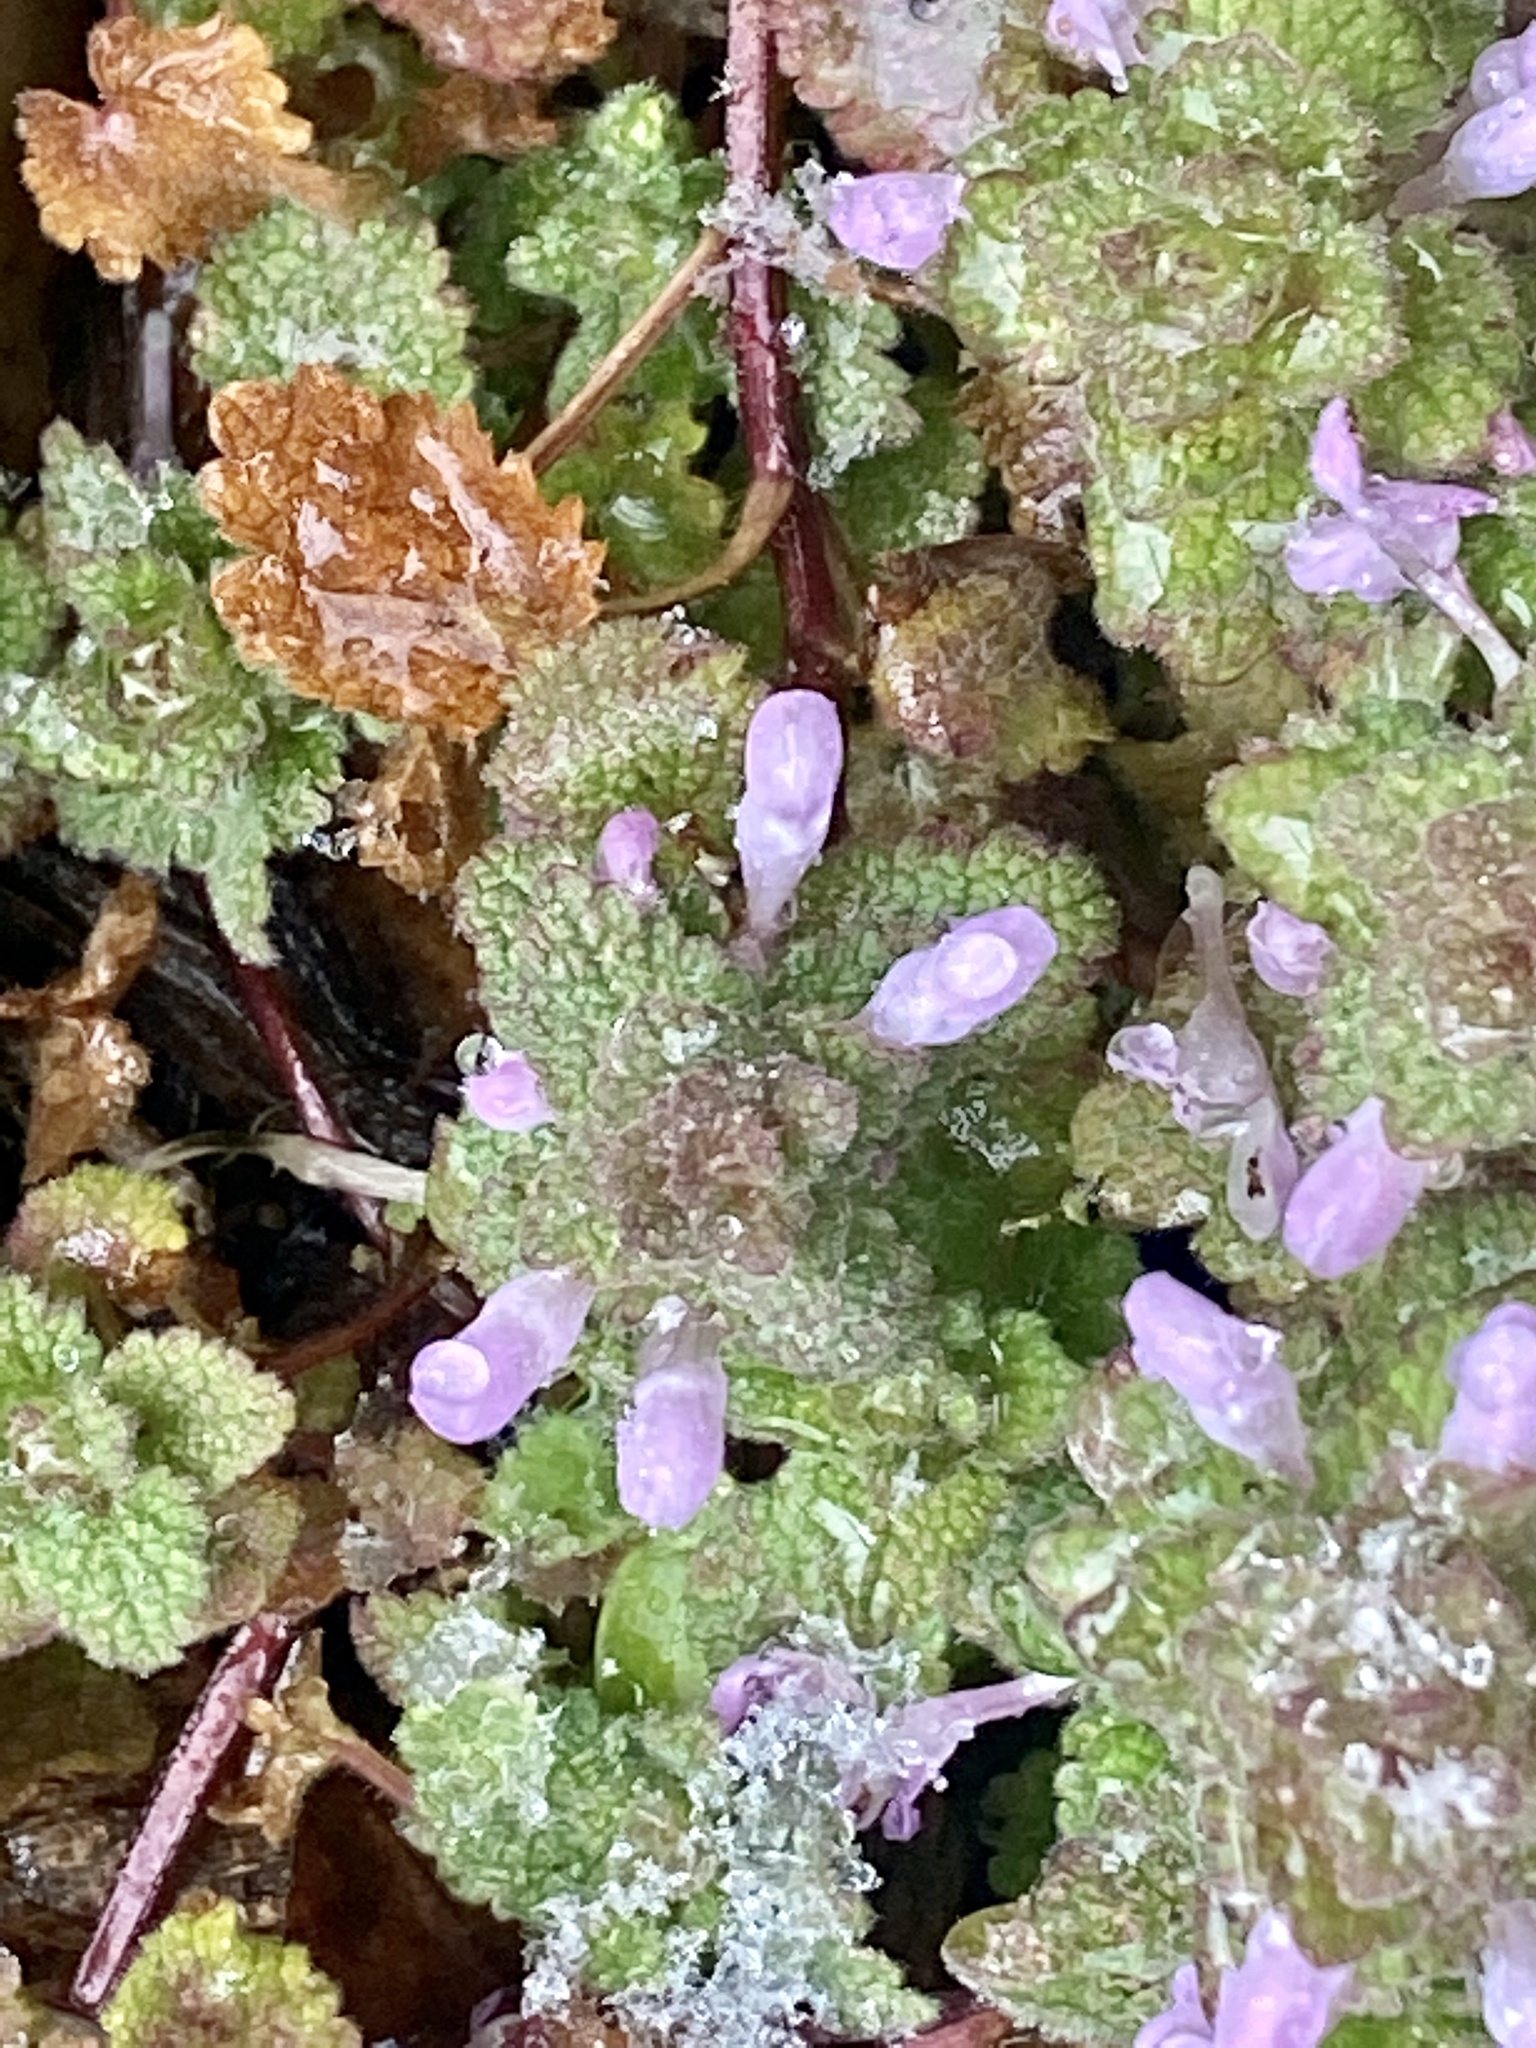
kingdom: Plantae
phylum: Tracheophyta
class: Magnoliopsida
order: Lamiales
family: Lamiaceae
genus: Lamium
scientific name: Lamium purpureum
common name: Red dead-nettle
